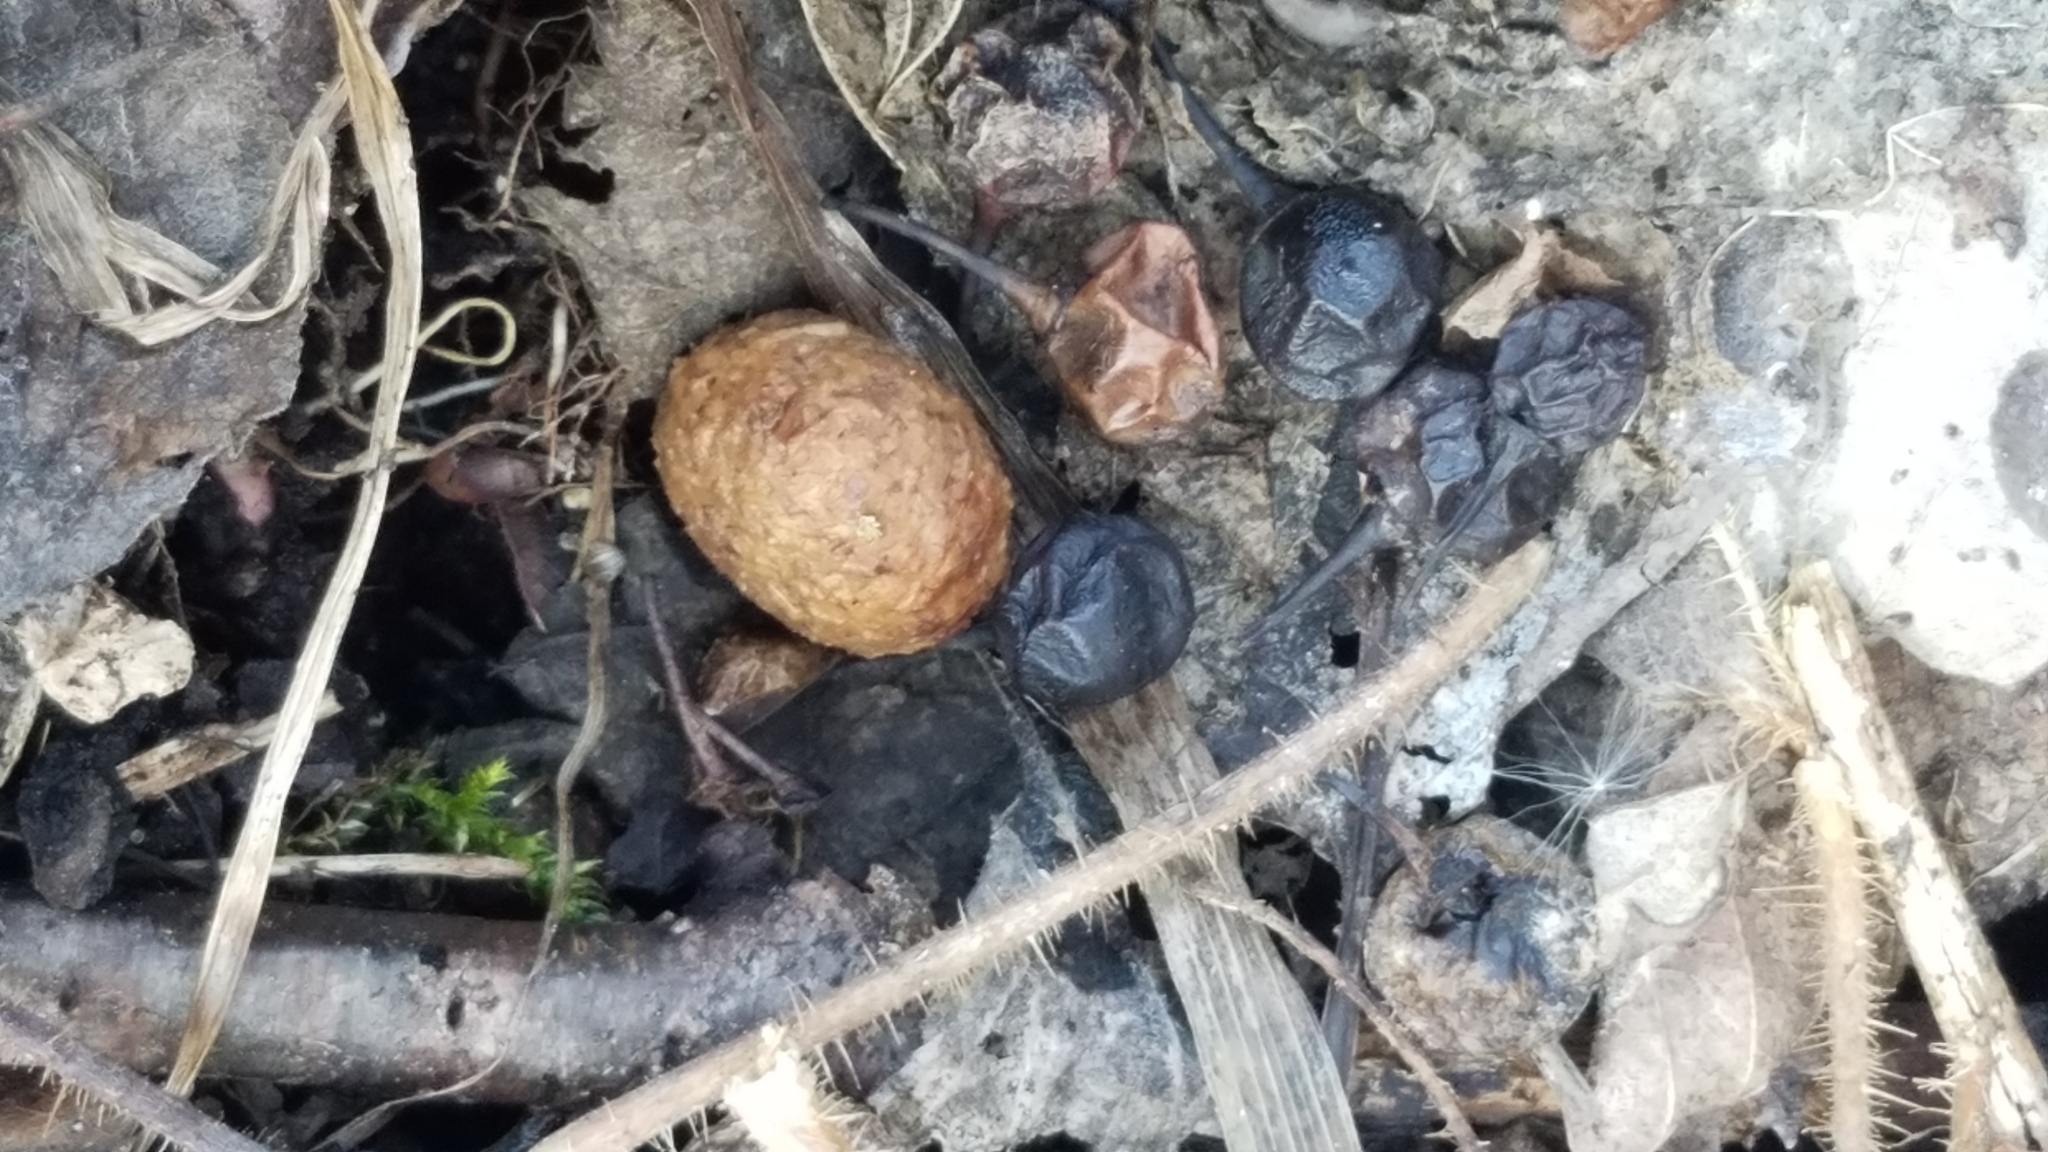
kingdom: Animalia
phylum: Chordata
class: Mammalia
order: Lagomorpha
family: Leporidae
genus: Sylvilagus
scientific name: Sylvilagus floridanus
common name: Eastern cottontail
